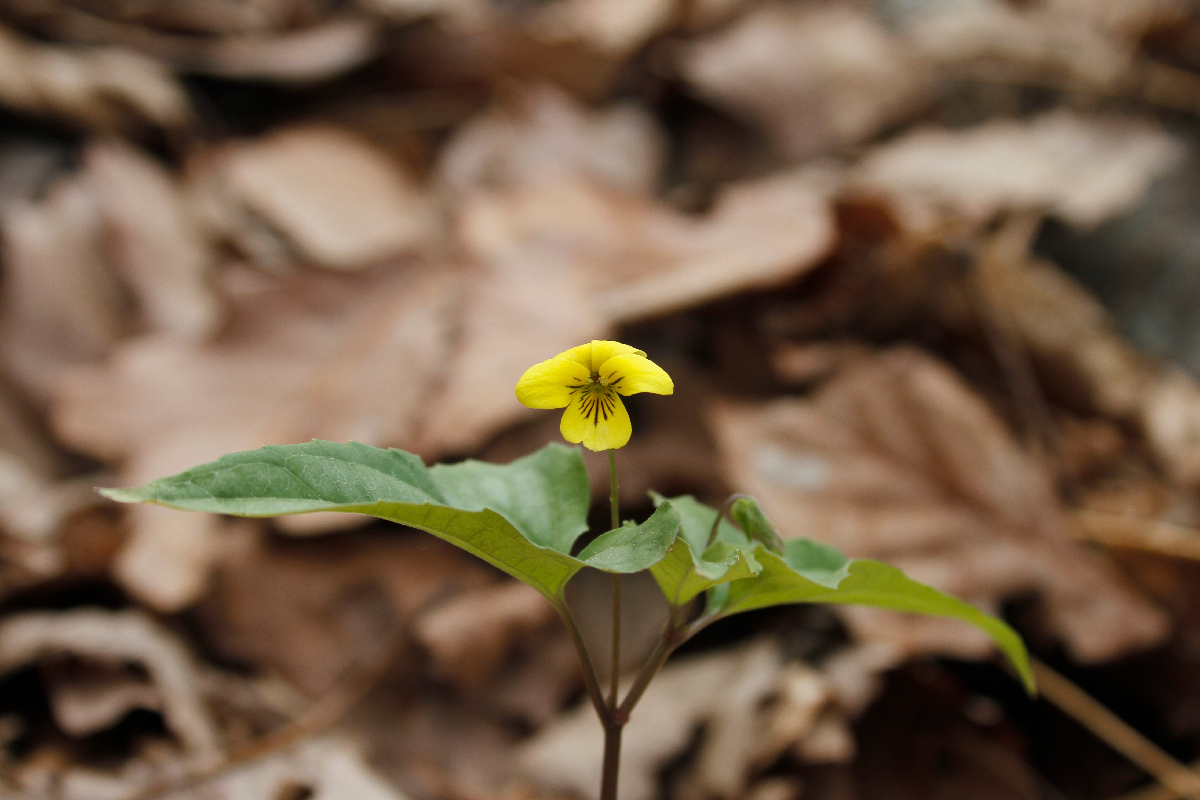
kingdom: Plantae
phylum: Tracheophyta
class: Magnoliopsida
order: Malpighiales
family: Violaceae
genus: Viola
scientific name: Viola hastata
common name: Spear-leaf violet
